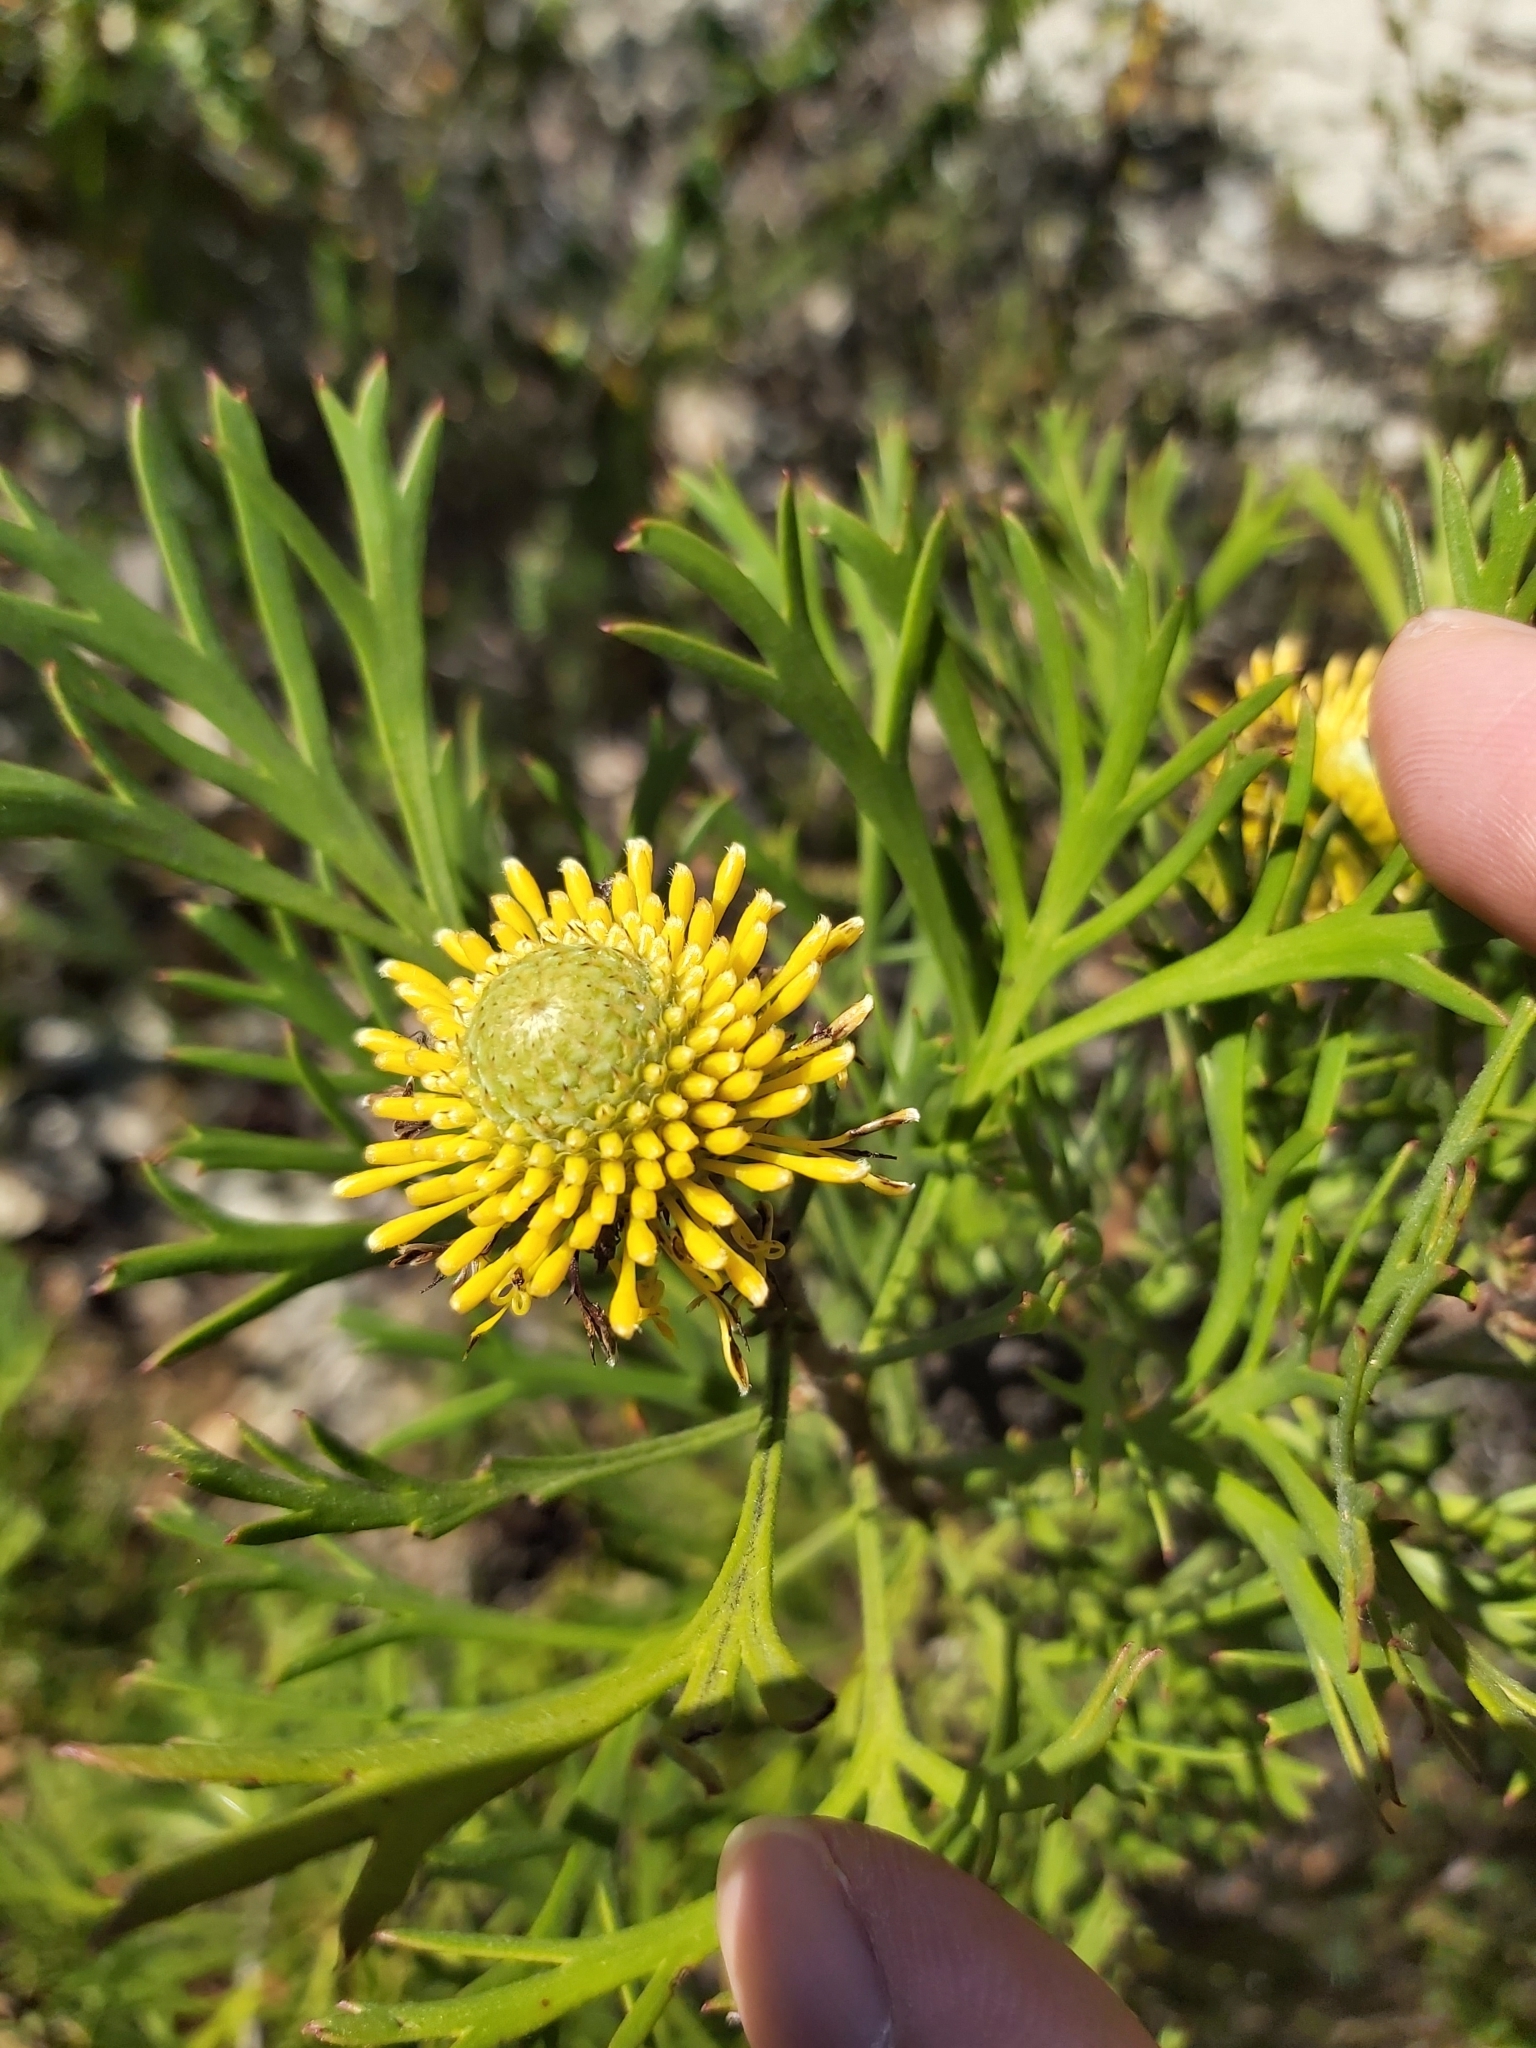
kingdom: Plantae
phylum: Tracheophyta
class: Magnoliopsida
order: Proteales
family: Proteaceae
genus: Isopogon
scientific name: Isopogon anemonifolius
